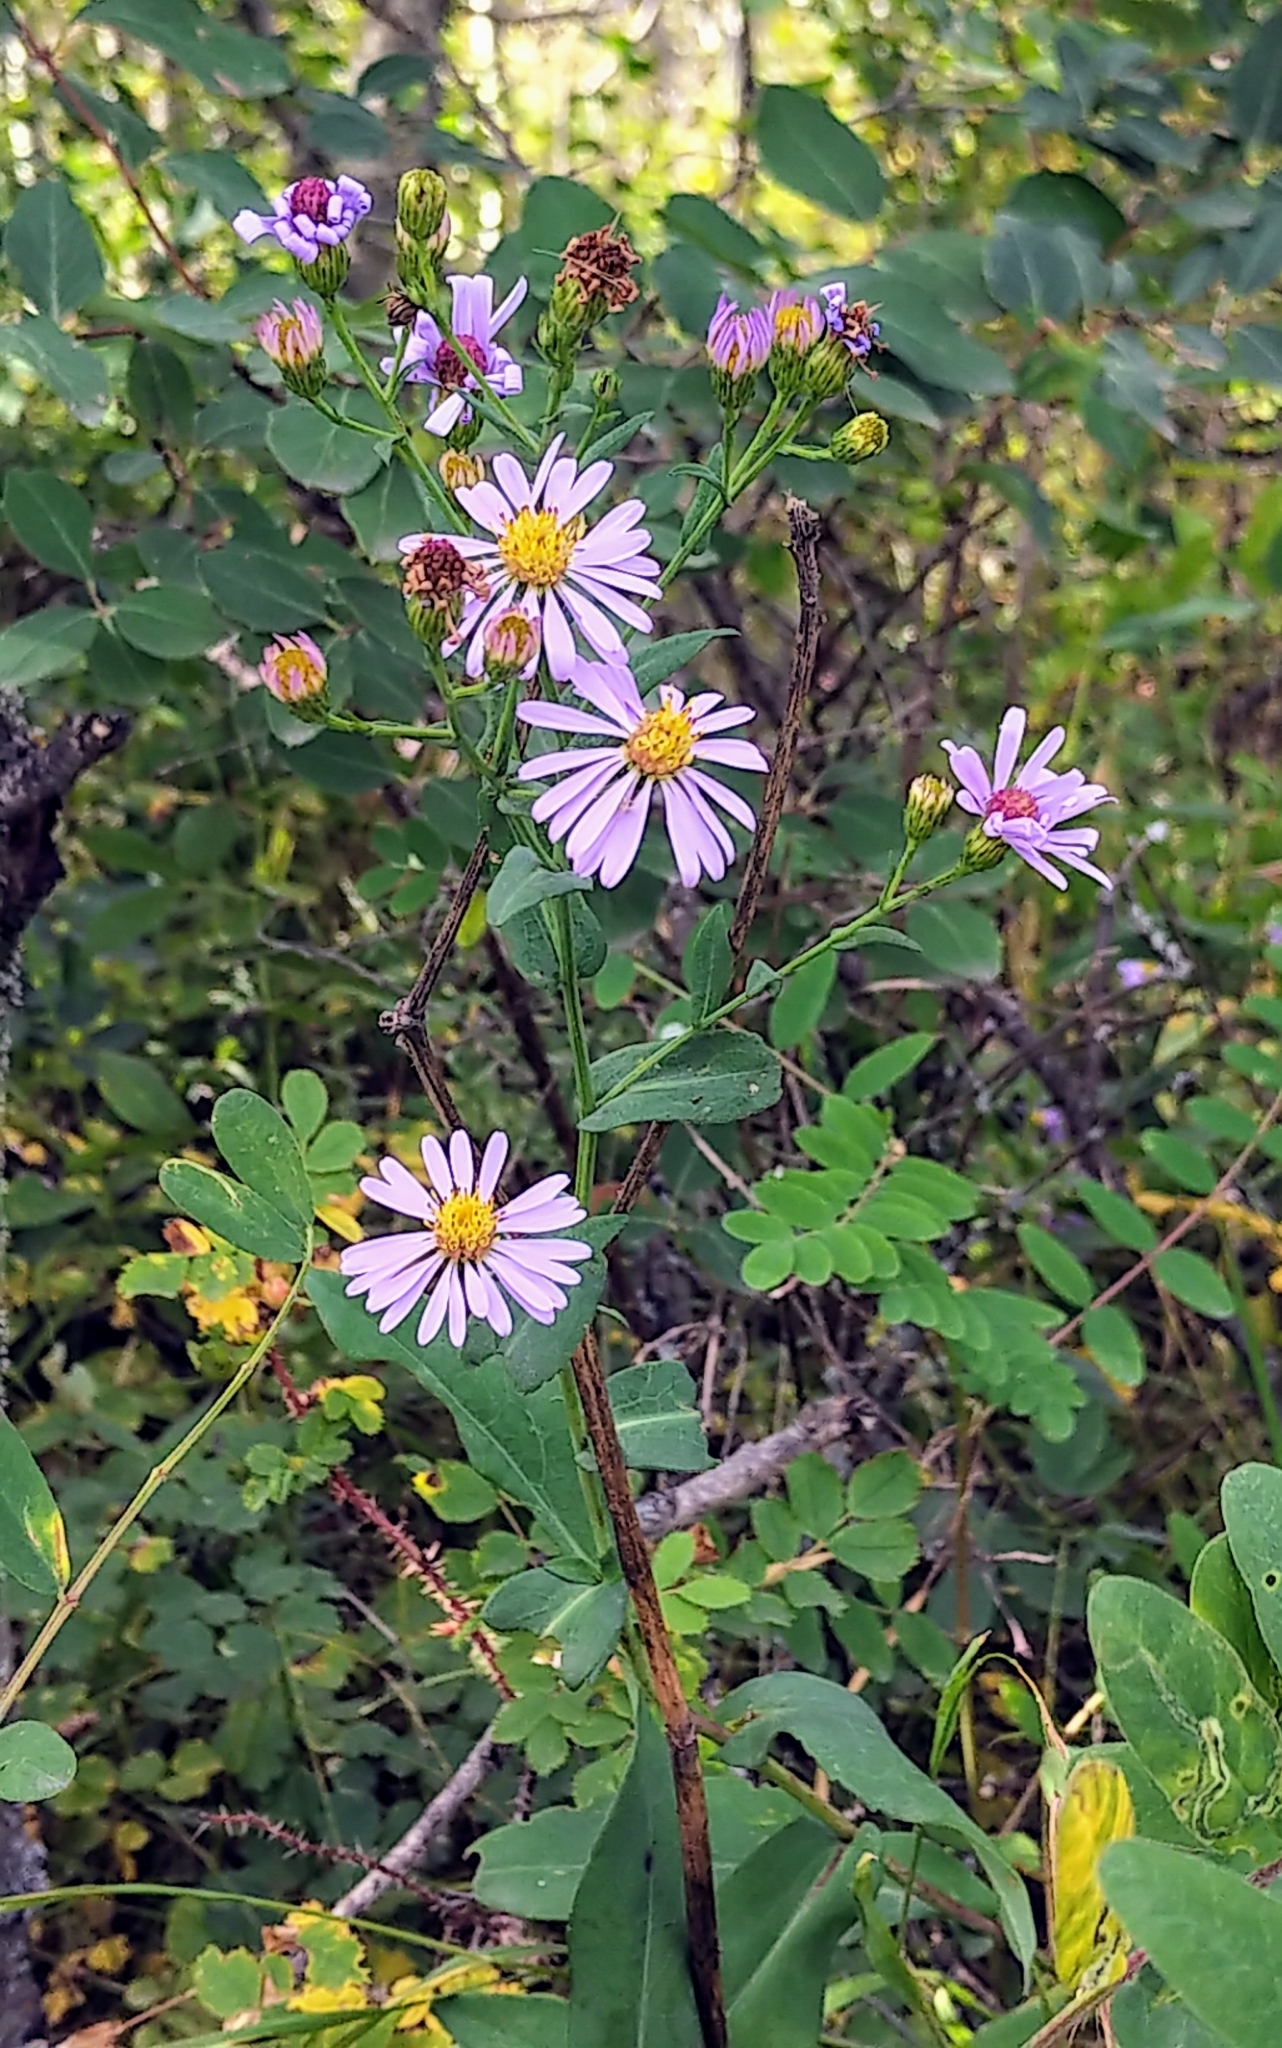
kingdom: Plantae
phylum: Tracheophyta
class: Magnoliopsida
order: Asterales
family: Asteraceae
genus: Symphyotrichum
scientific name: Symphyotrichum laeve
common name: Glaucous aster
